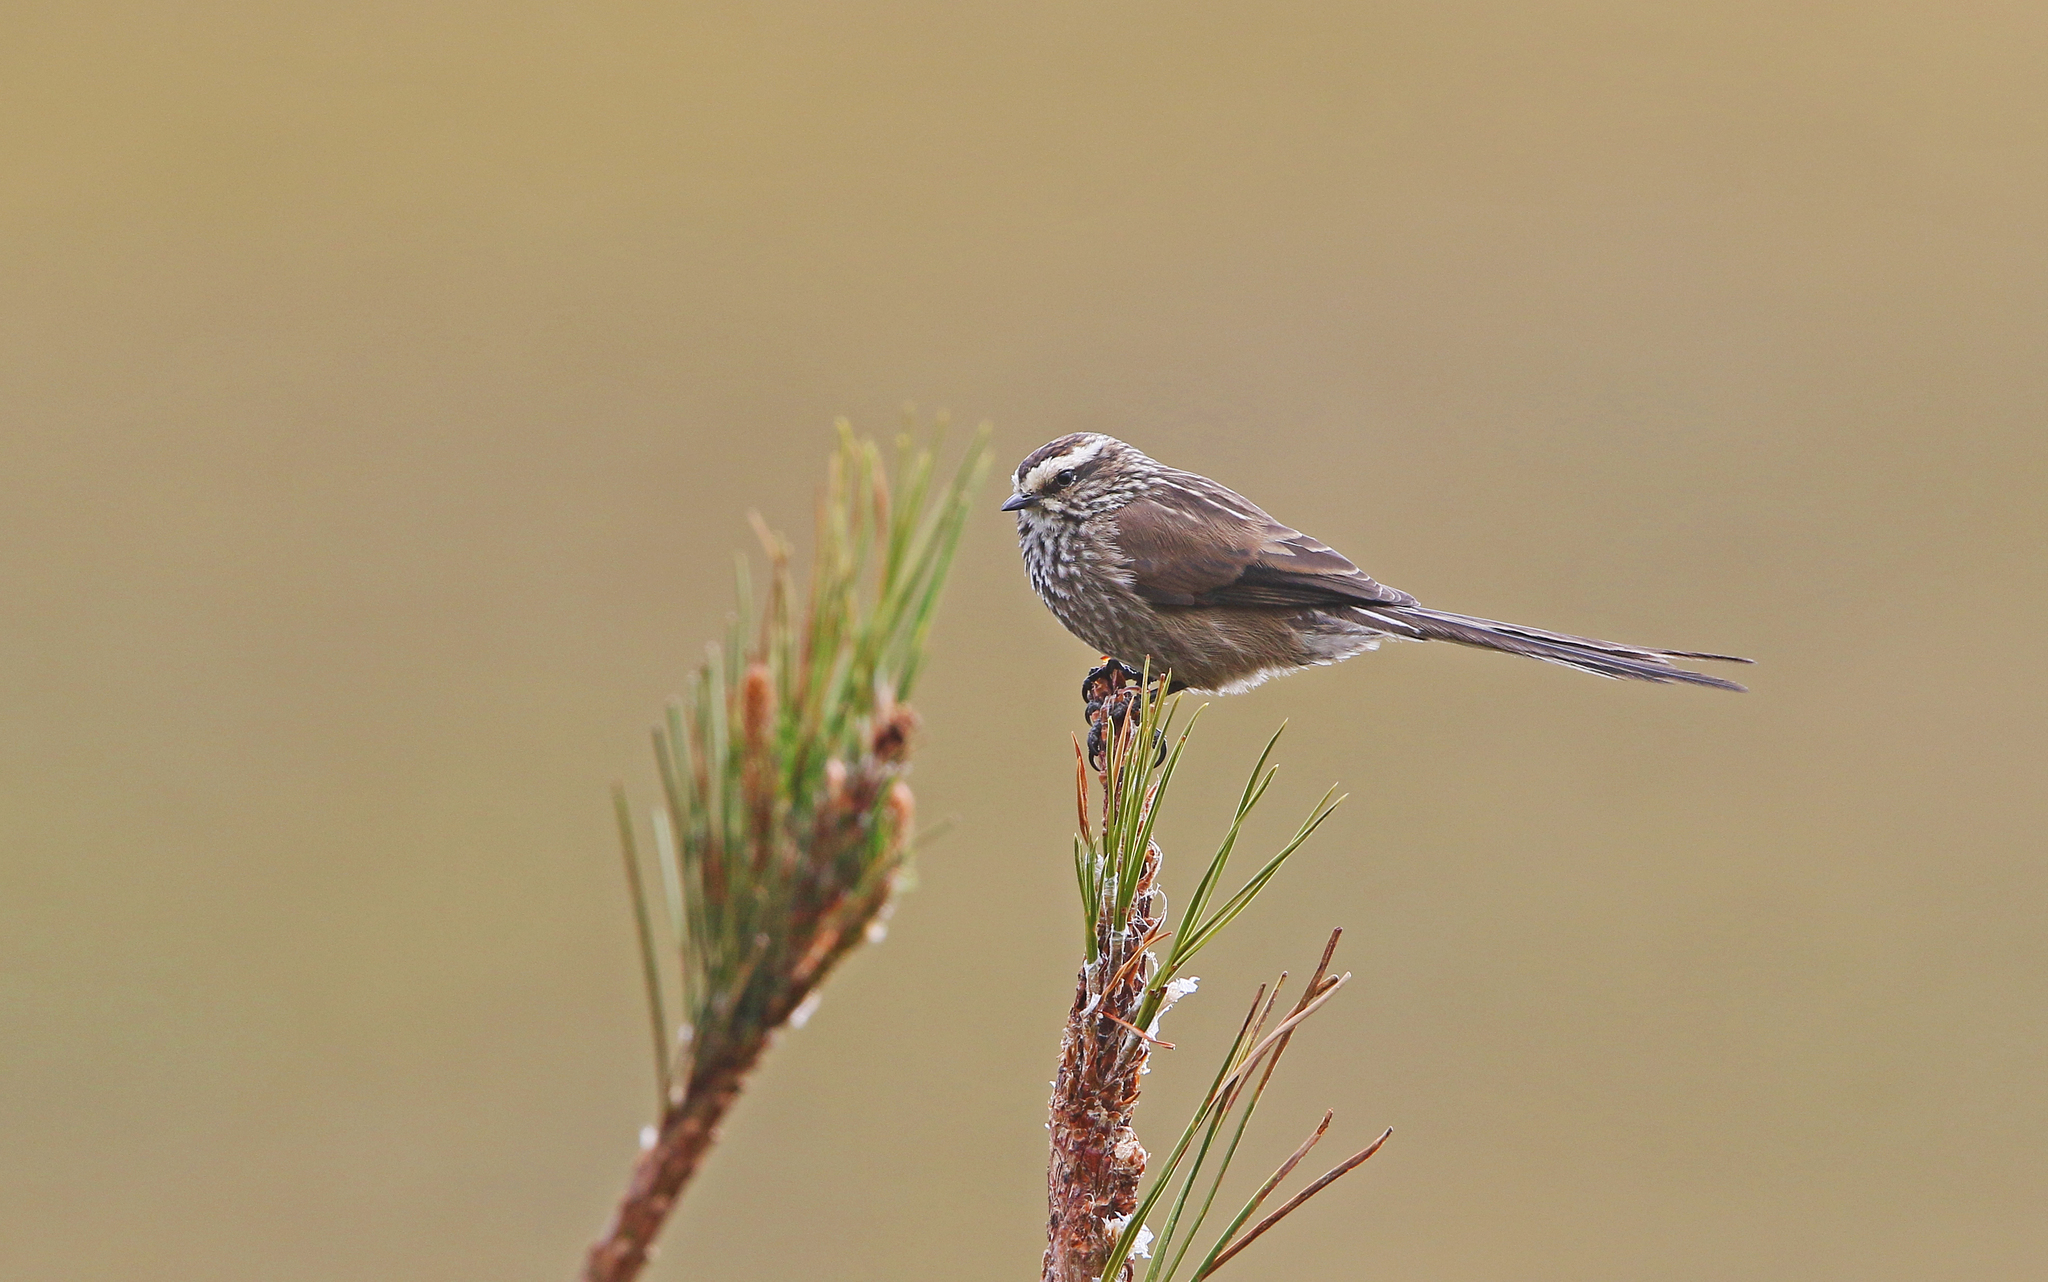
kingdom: Animalia
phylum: Chordata
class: Aves
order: Passeriformes
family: Furnariidae
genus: Leptasthenura
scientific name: Leptasthenura andicola
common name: Andean tit-spinetail
